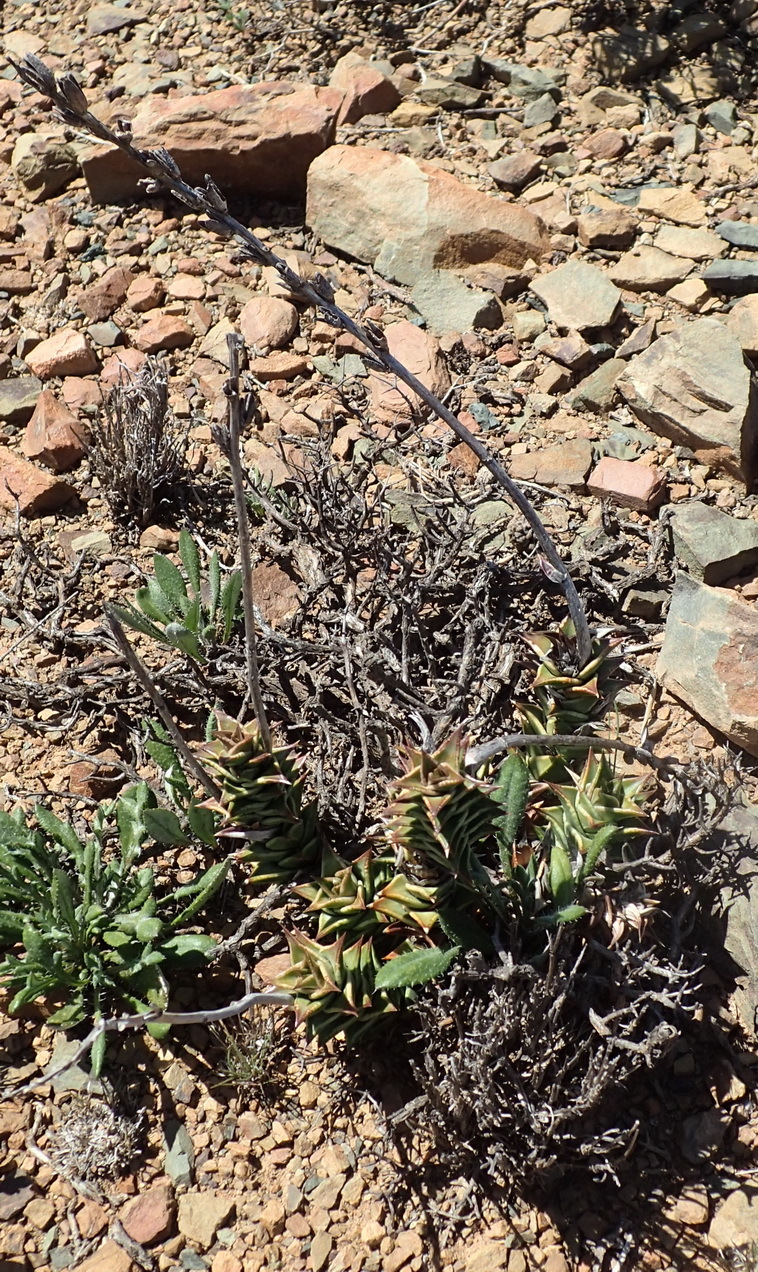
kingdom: Plantae
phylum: Tracheophyta
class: Liliopsida
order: Asparagales
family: Asphodelaceae
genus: Astroloba
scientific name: Astroloba robusta
